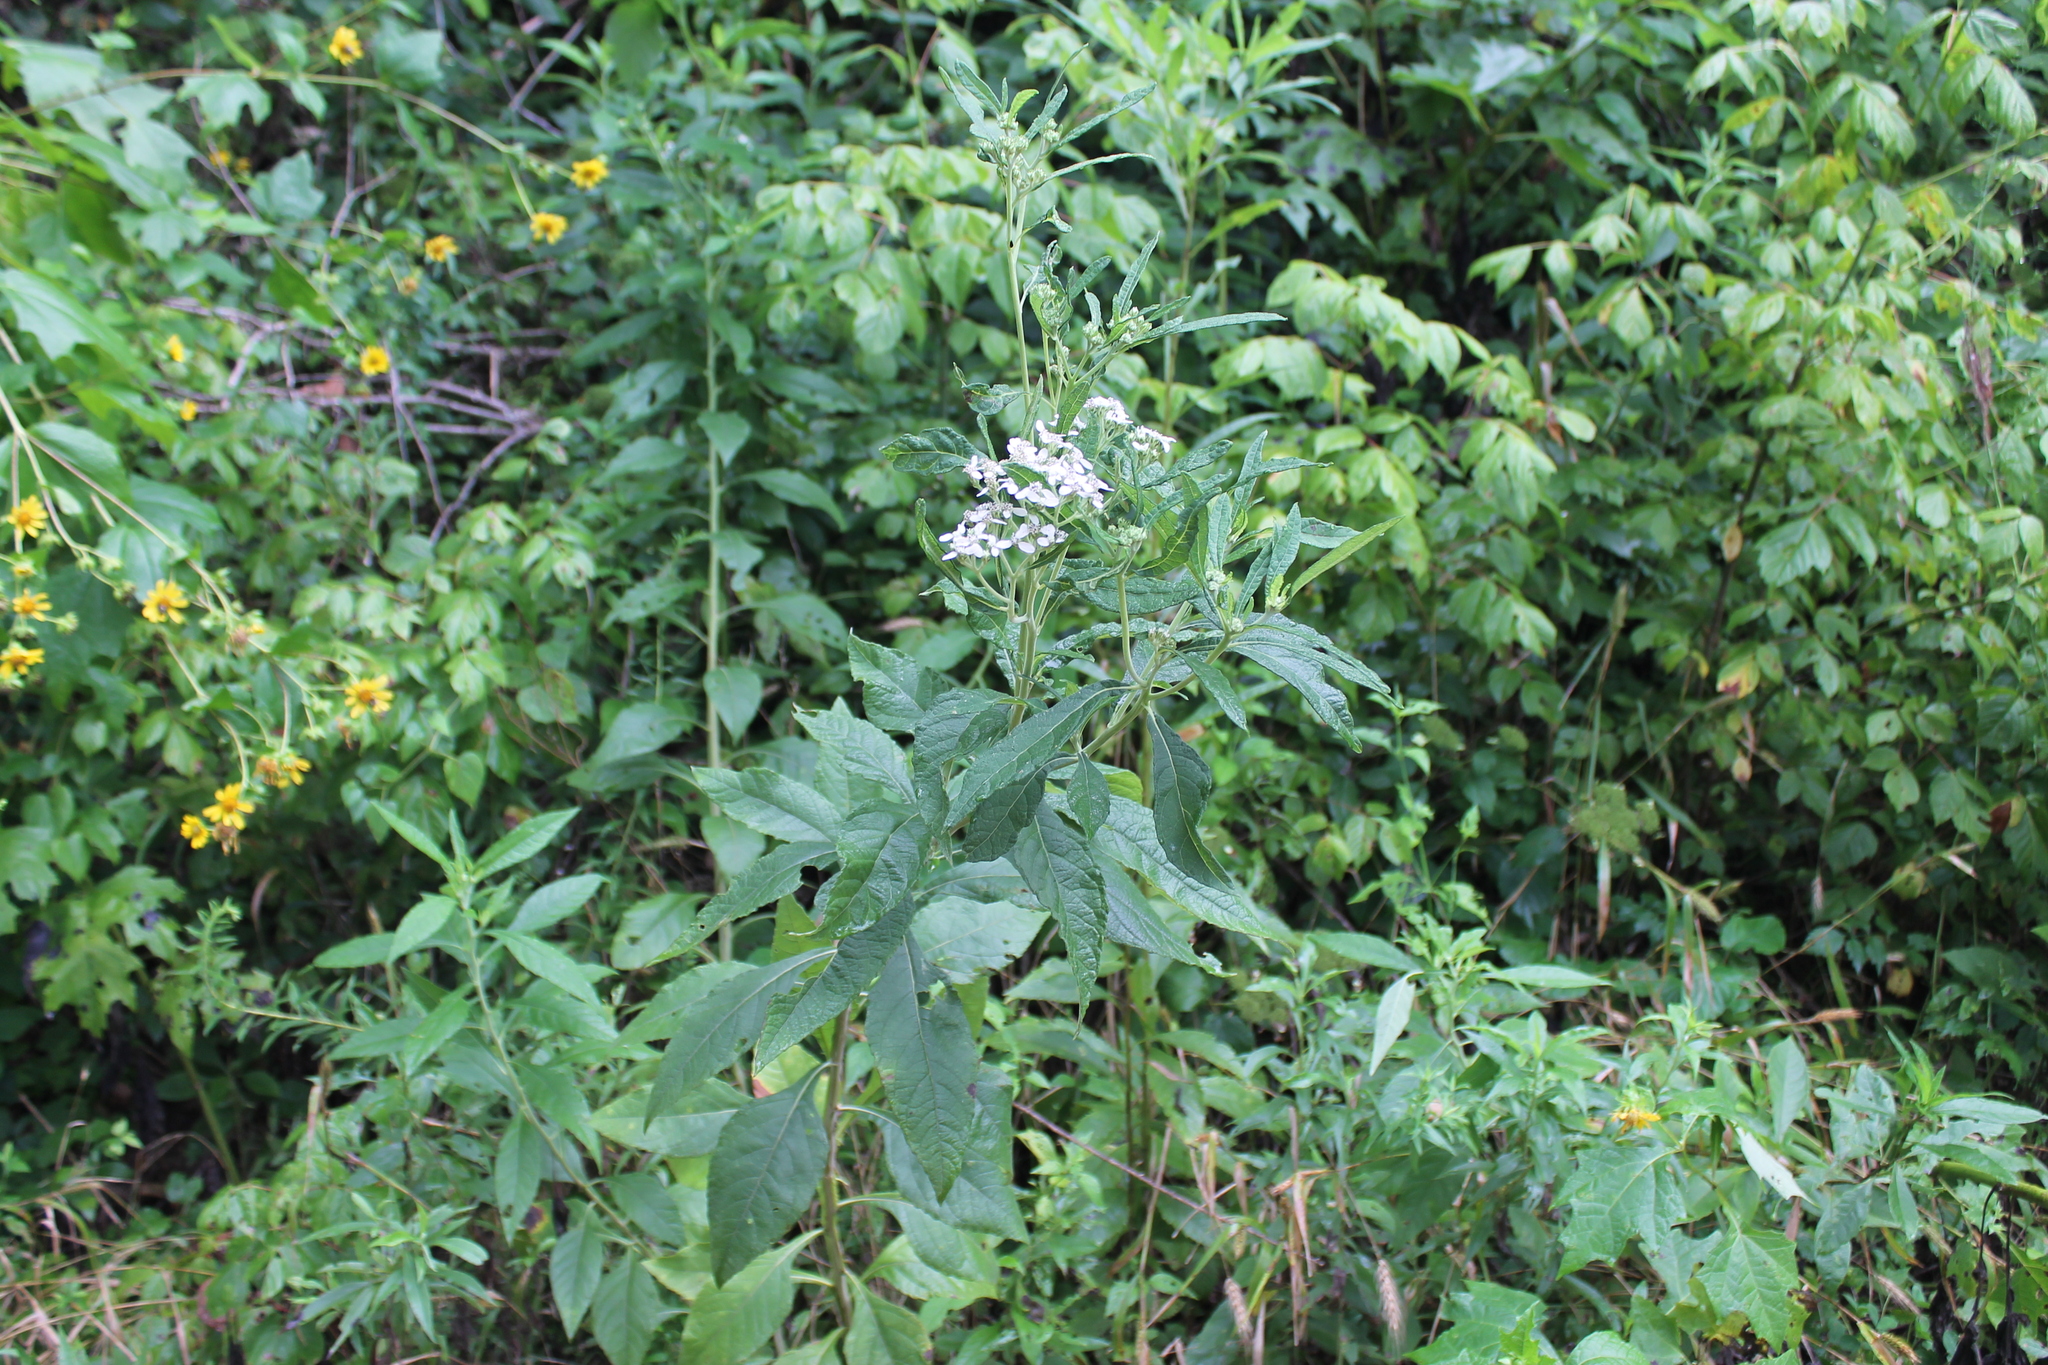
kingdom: Plantae
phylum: Tracheophyta
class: Magnoliopsida
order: Asterales
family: Asteraceae
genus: Verbesina
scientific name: Verbesina virginica
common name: Frostweed
